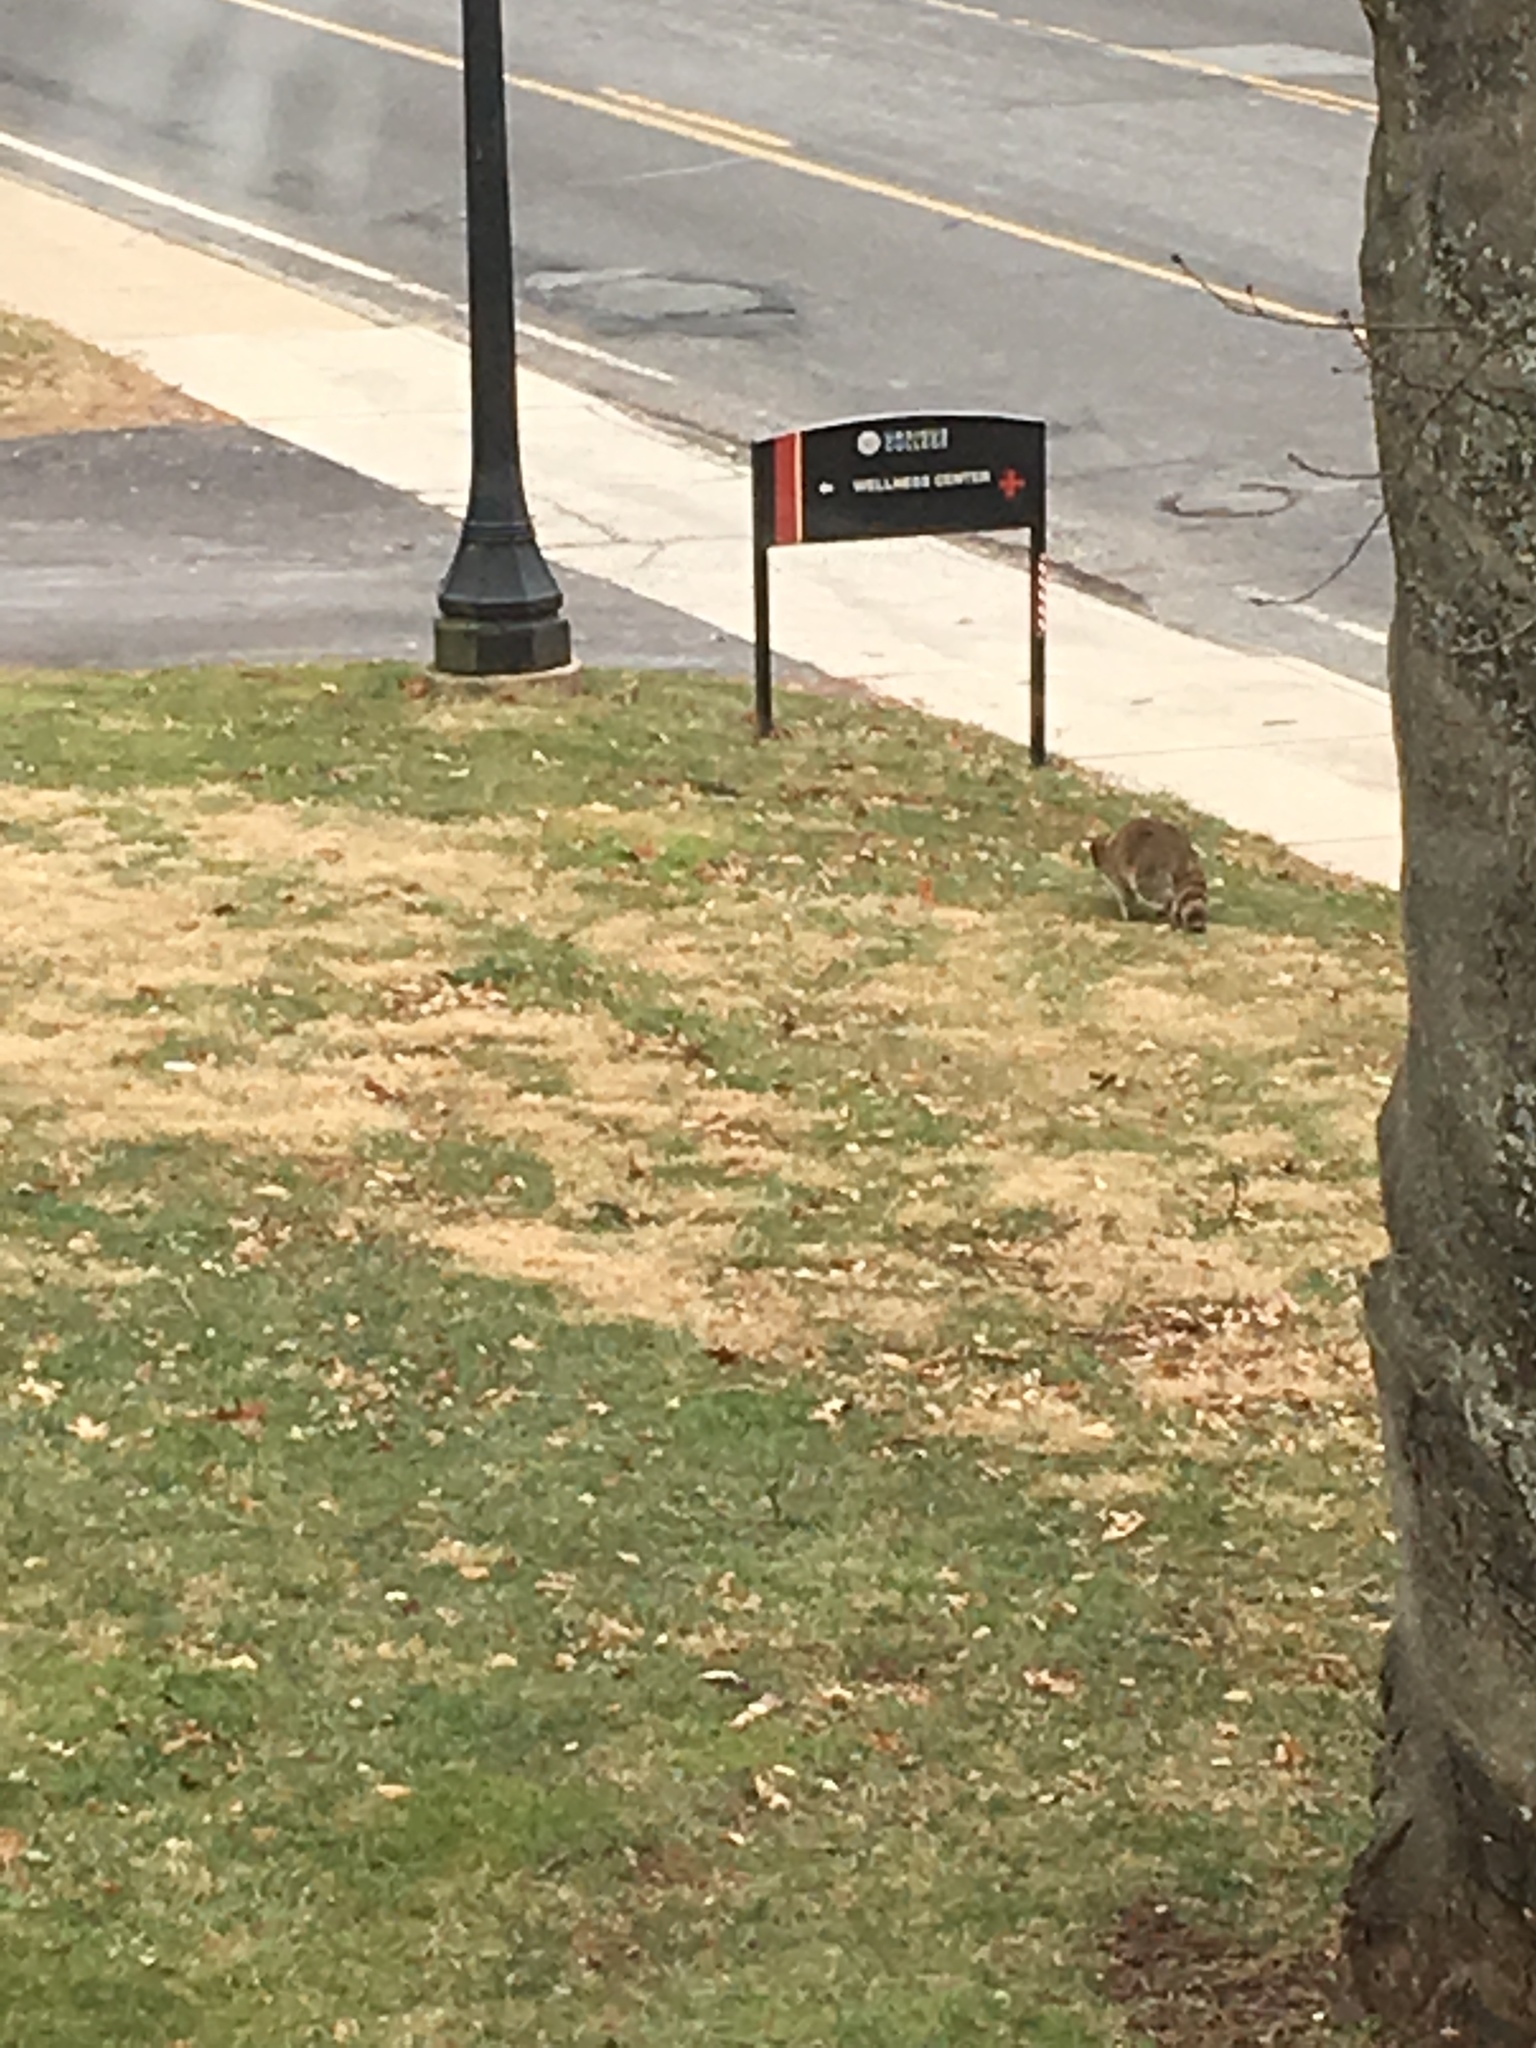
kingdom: Animalia
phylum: Chordata
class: Mammalia
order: Carnivora
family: Procyonidae
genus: Procyon
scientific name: Procyon lotor
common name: Raccoon
